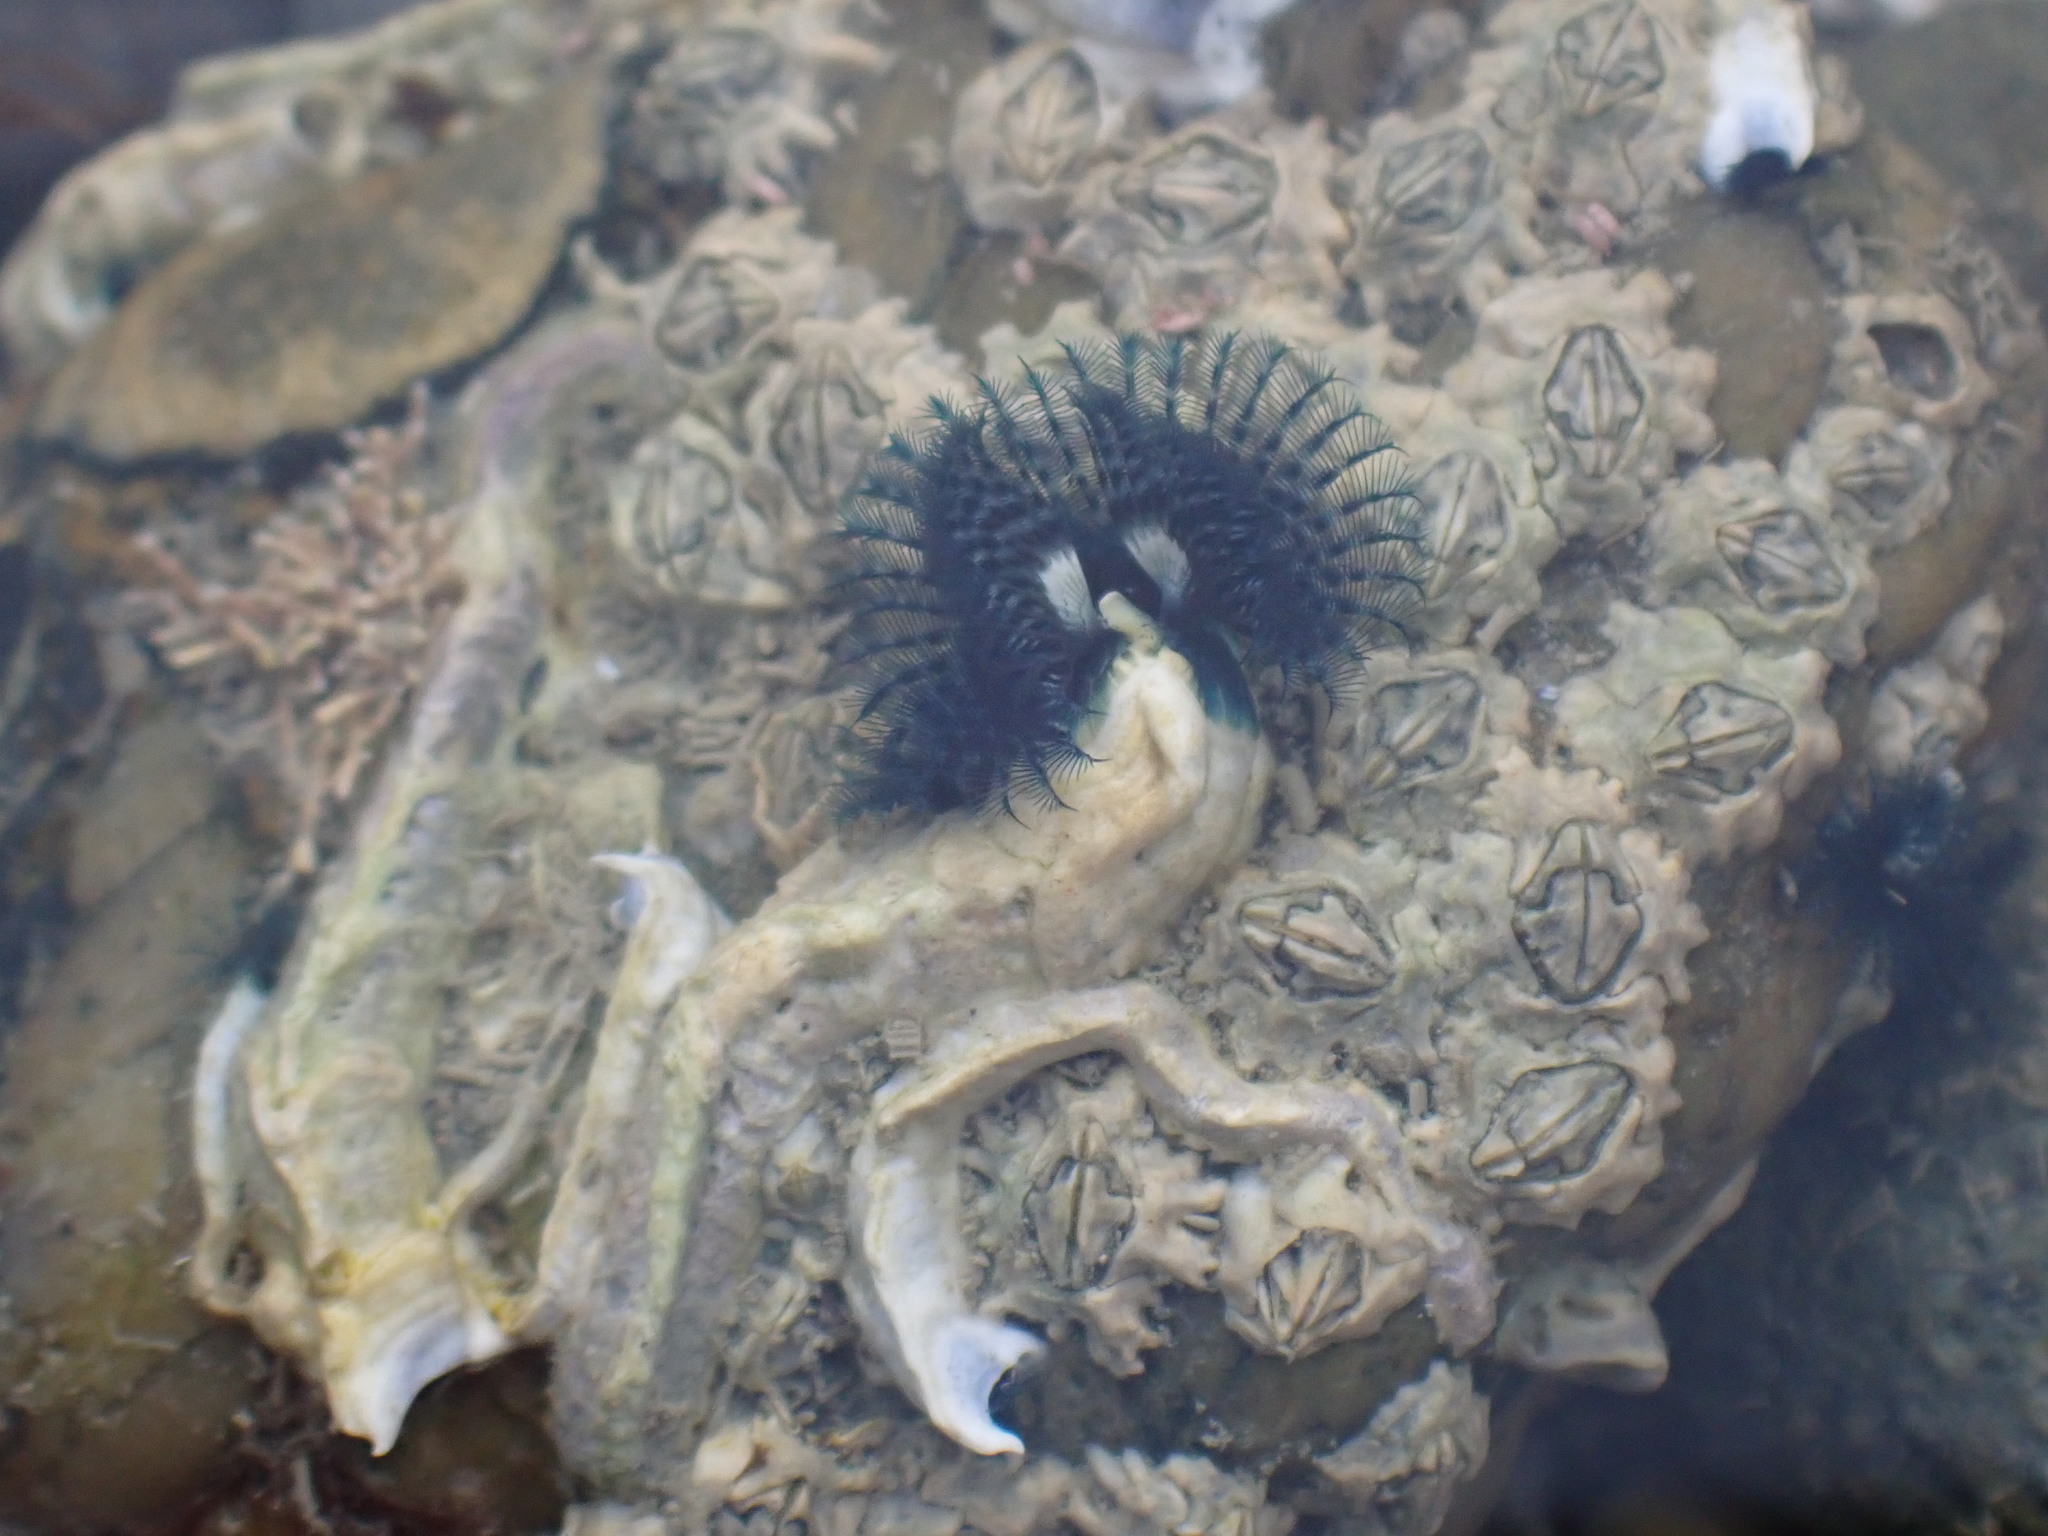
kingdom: Animalia
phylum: Annelida
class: Polychaeta
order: Sabellida
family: Serpulidae
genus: Spirobranchus
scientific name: Spirobranchus cariniferus
